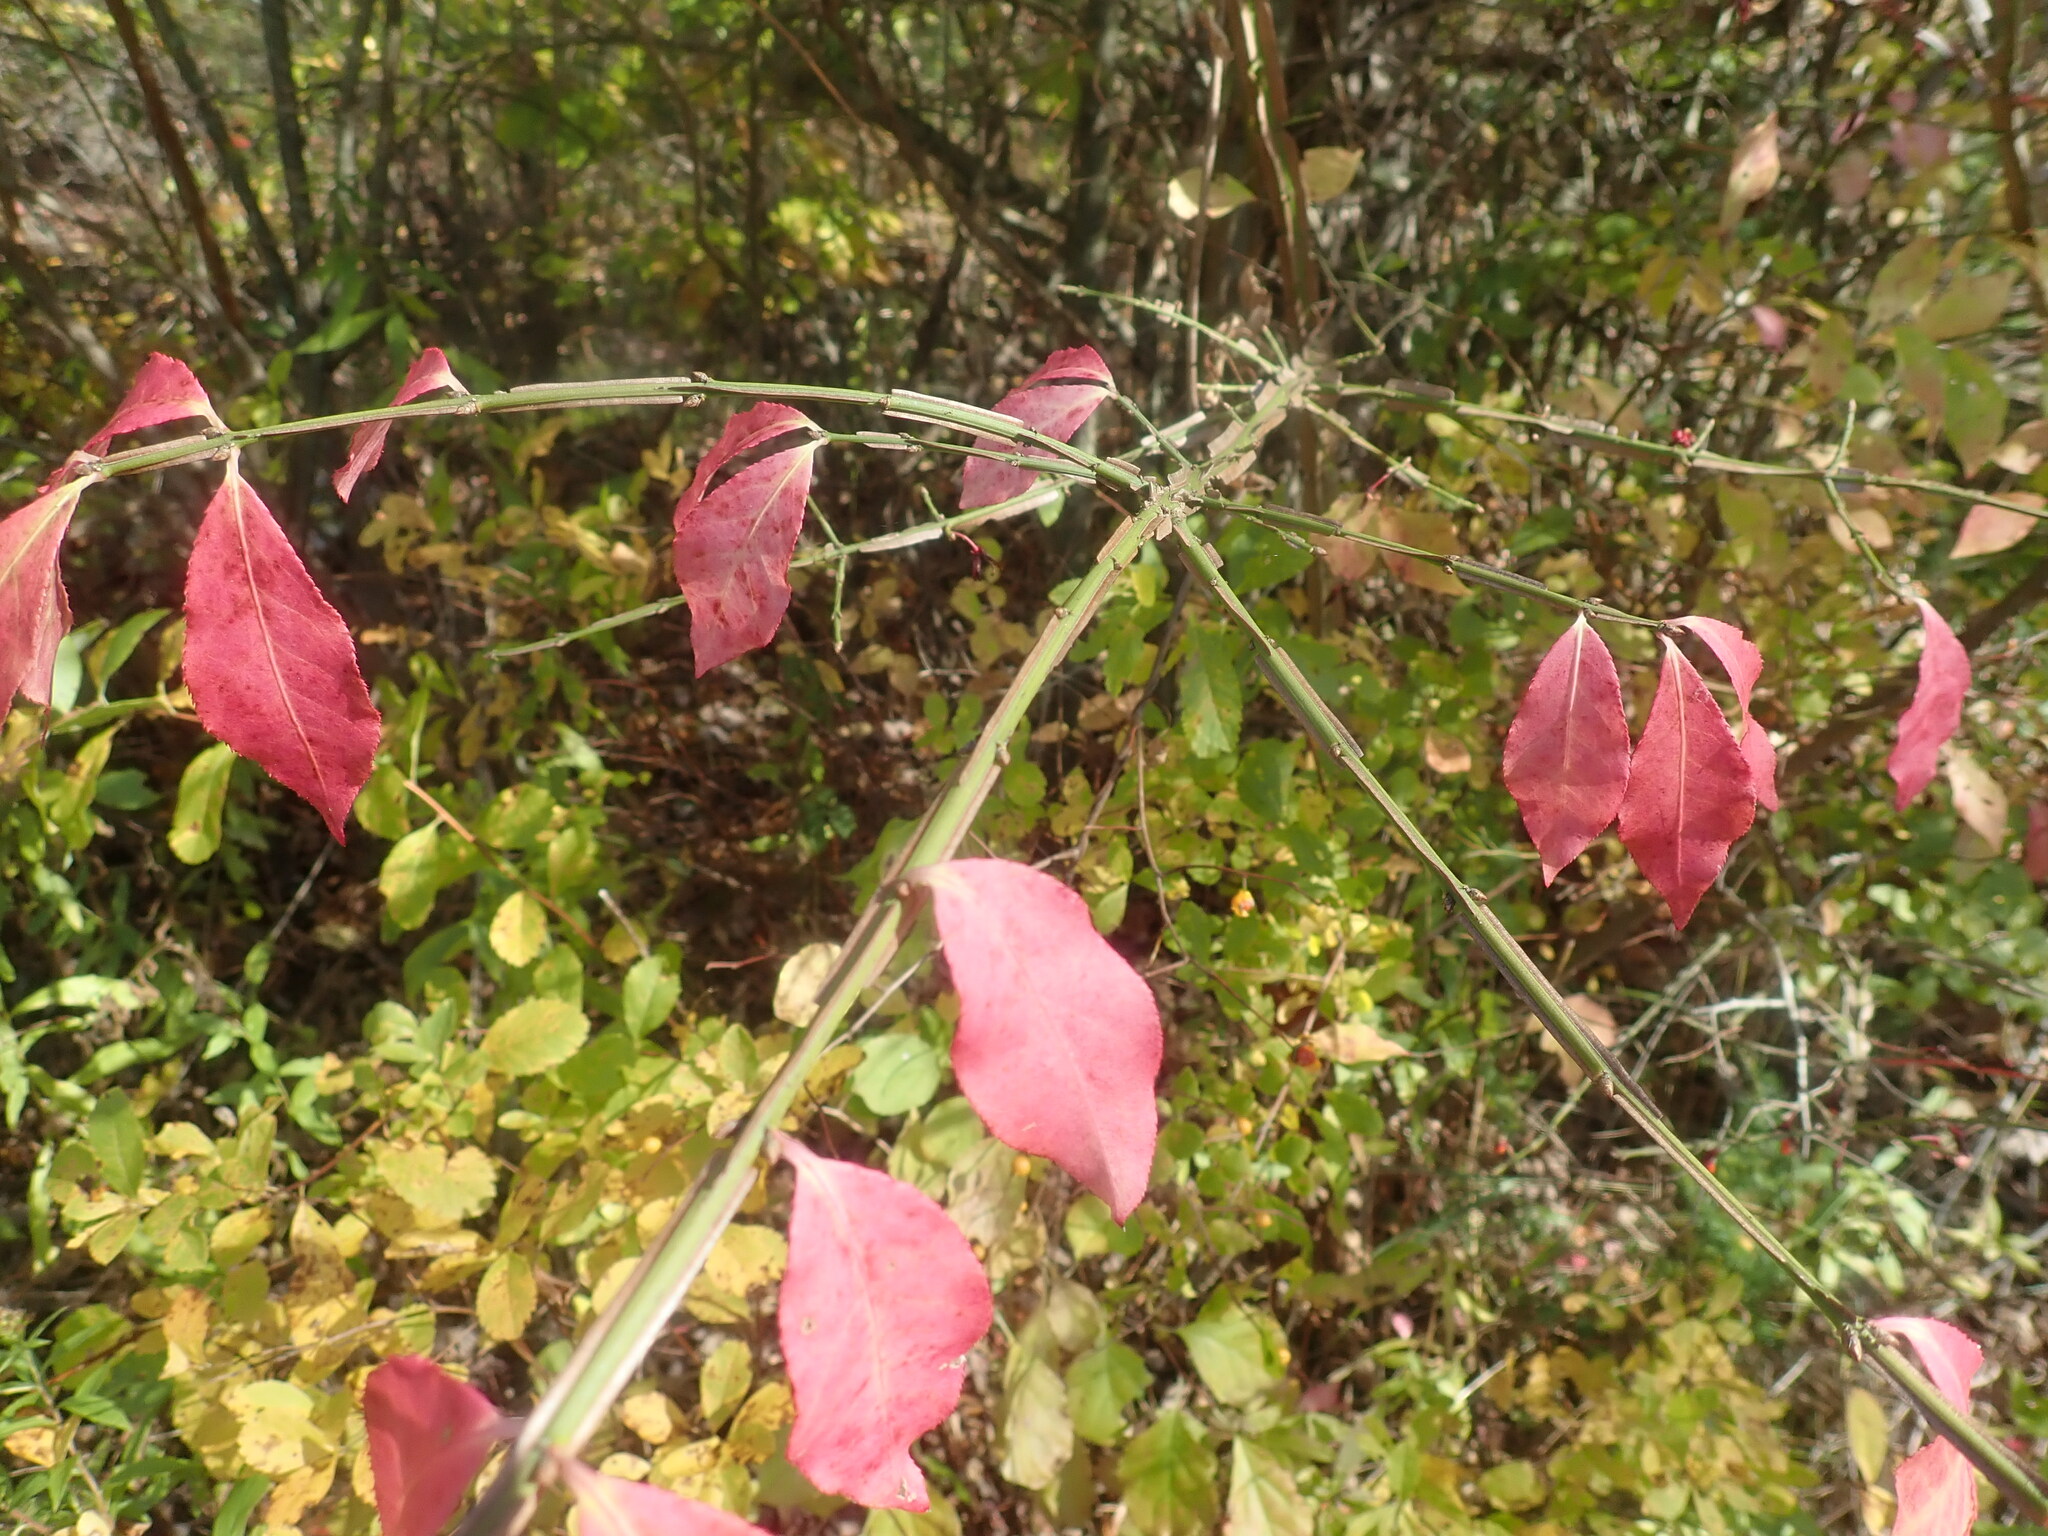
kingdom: Plantae
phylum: Tracheophyta
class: Magnoliopsida
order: Celastrales
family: Celastraceae
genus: Euonymus
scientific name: Euonymus alatus
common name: Winged euonymus
